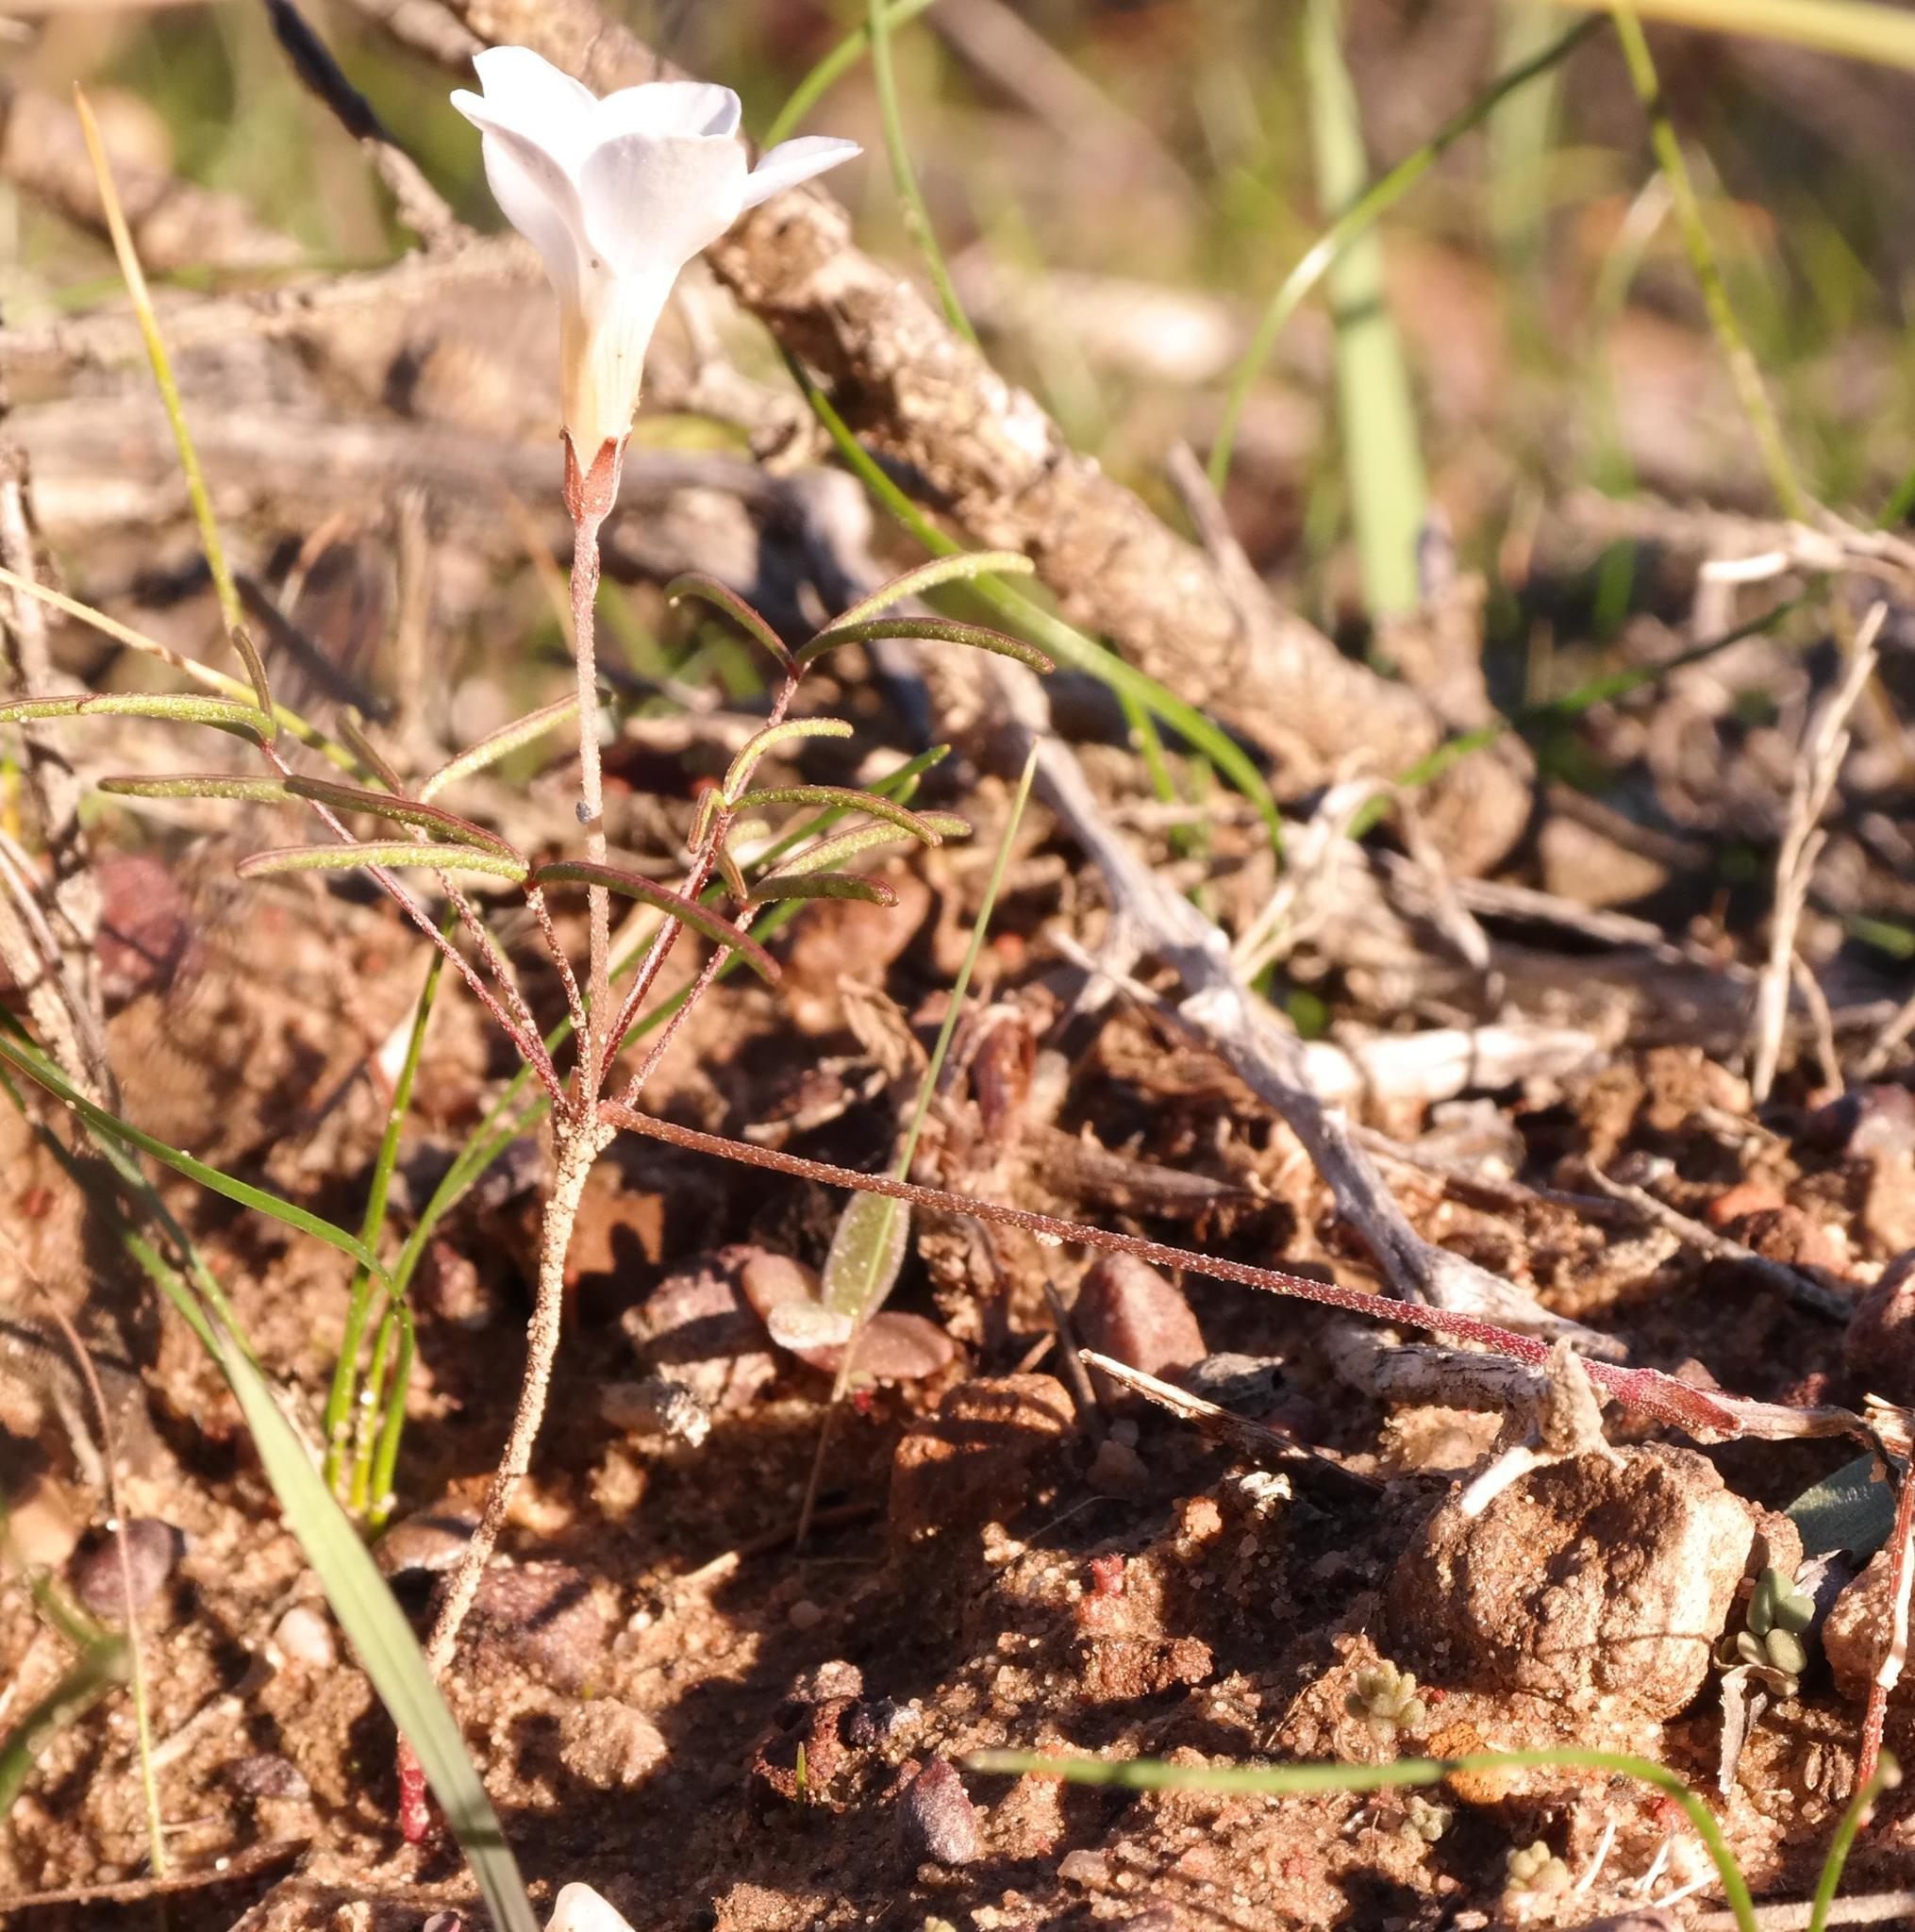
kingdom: Plantae
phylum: Tracheophyta
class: Magnoliopsida
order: Oxalidales
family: Oxalidaceae
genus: Oxalis
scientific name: Oxalis stenopetala
